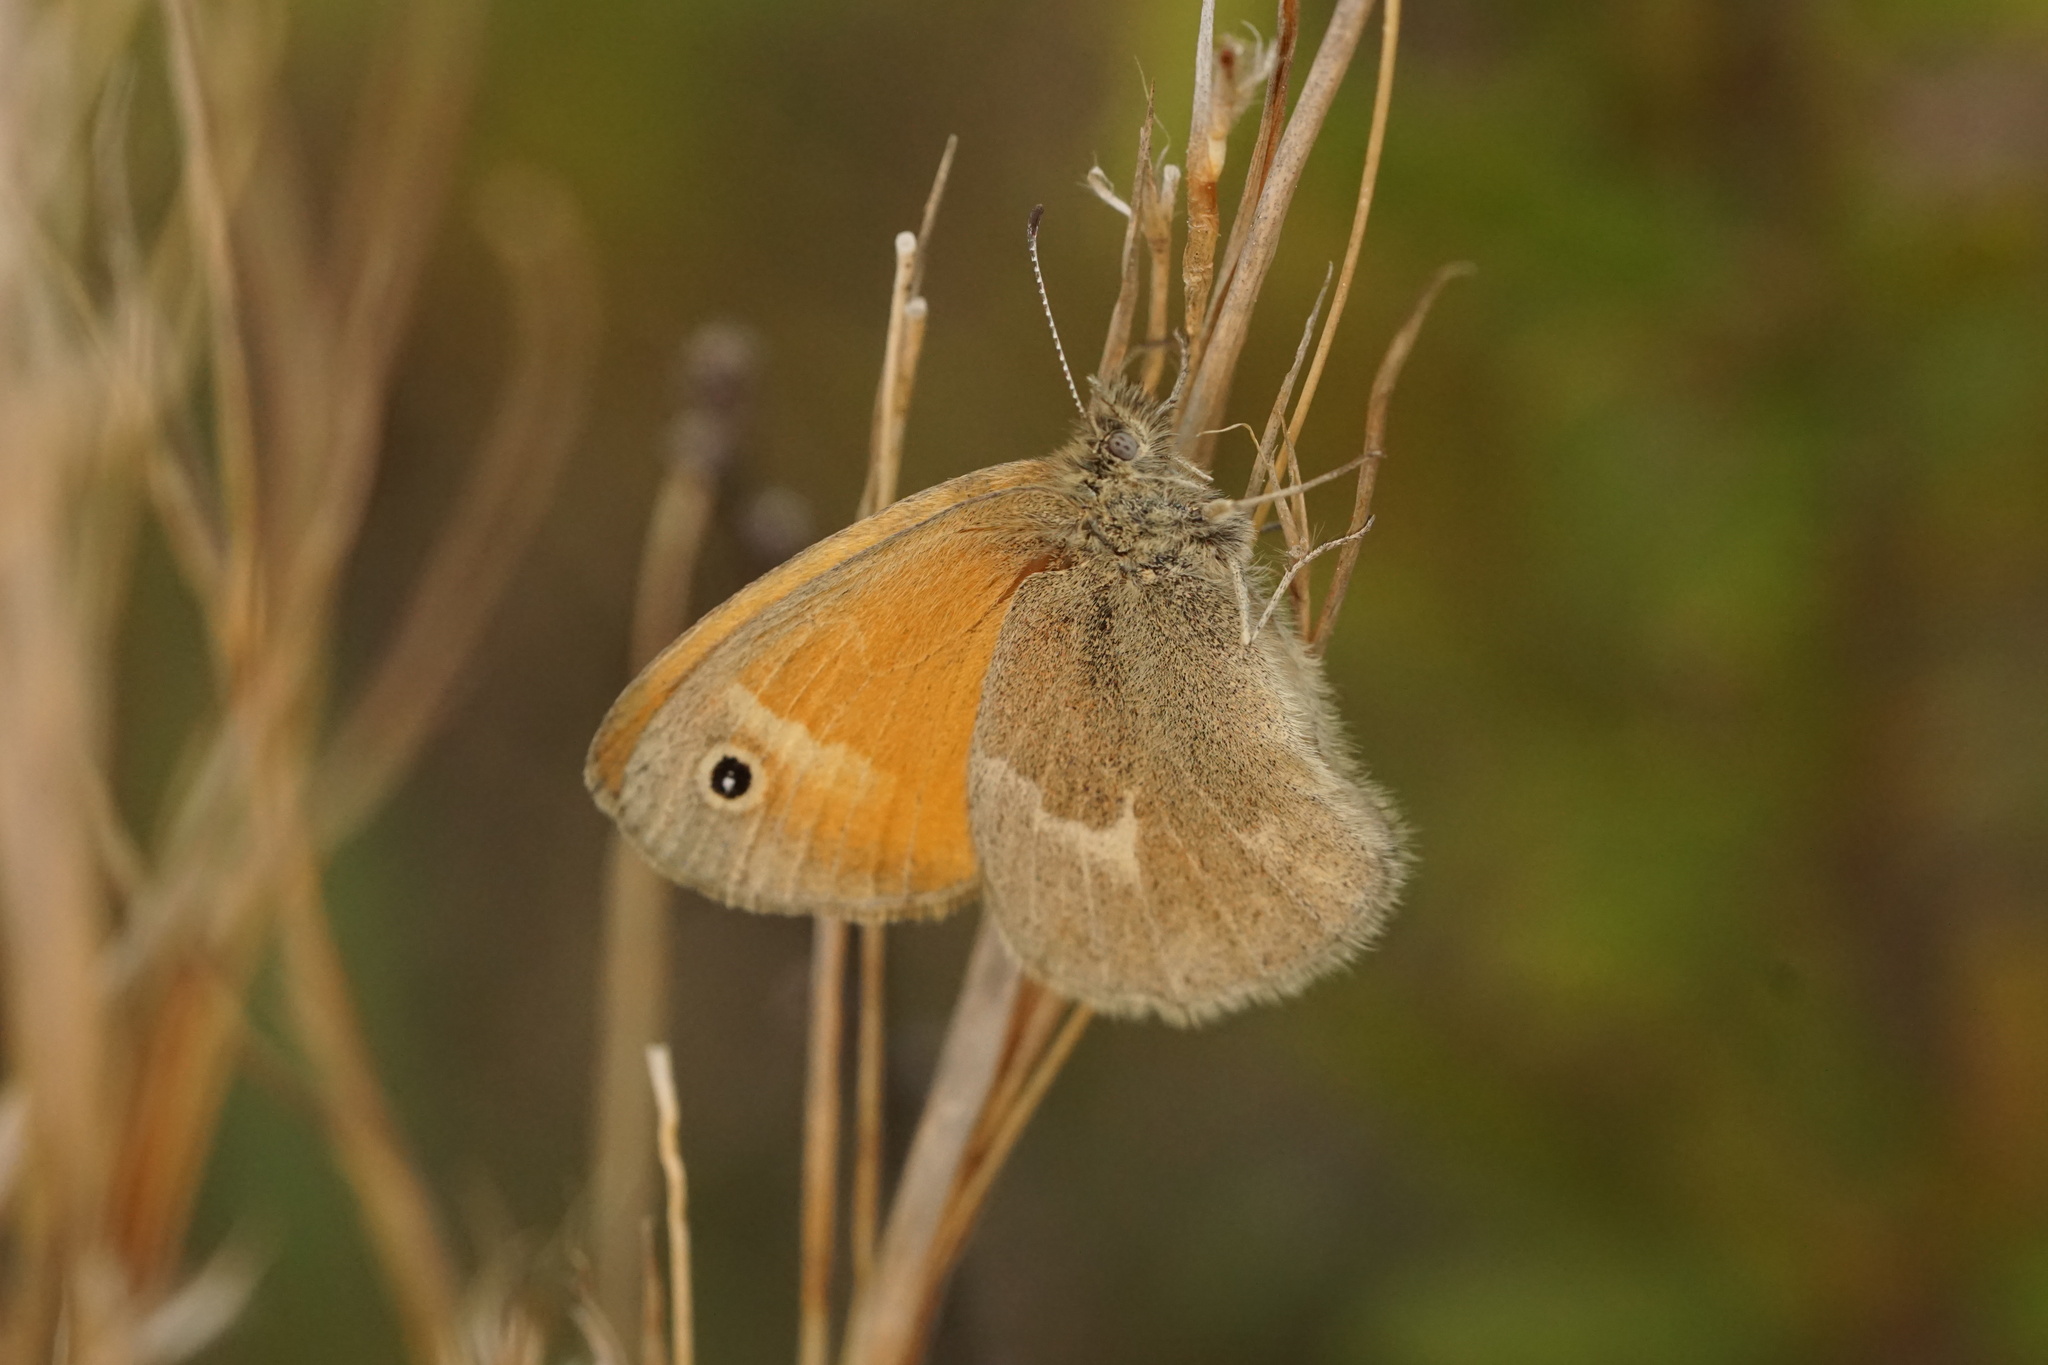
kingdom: Animalia
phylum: Arthropoda
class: Insecta
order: Lepidoptera
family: Nymphalidae
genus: Coenonympha
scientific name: Coenonympha california
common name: Common ringlet
